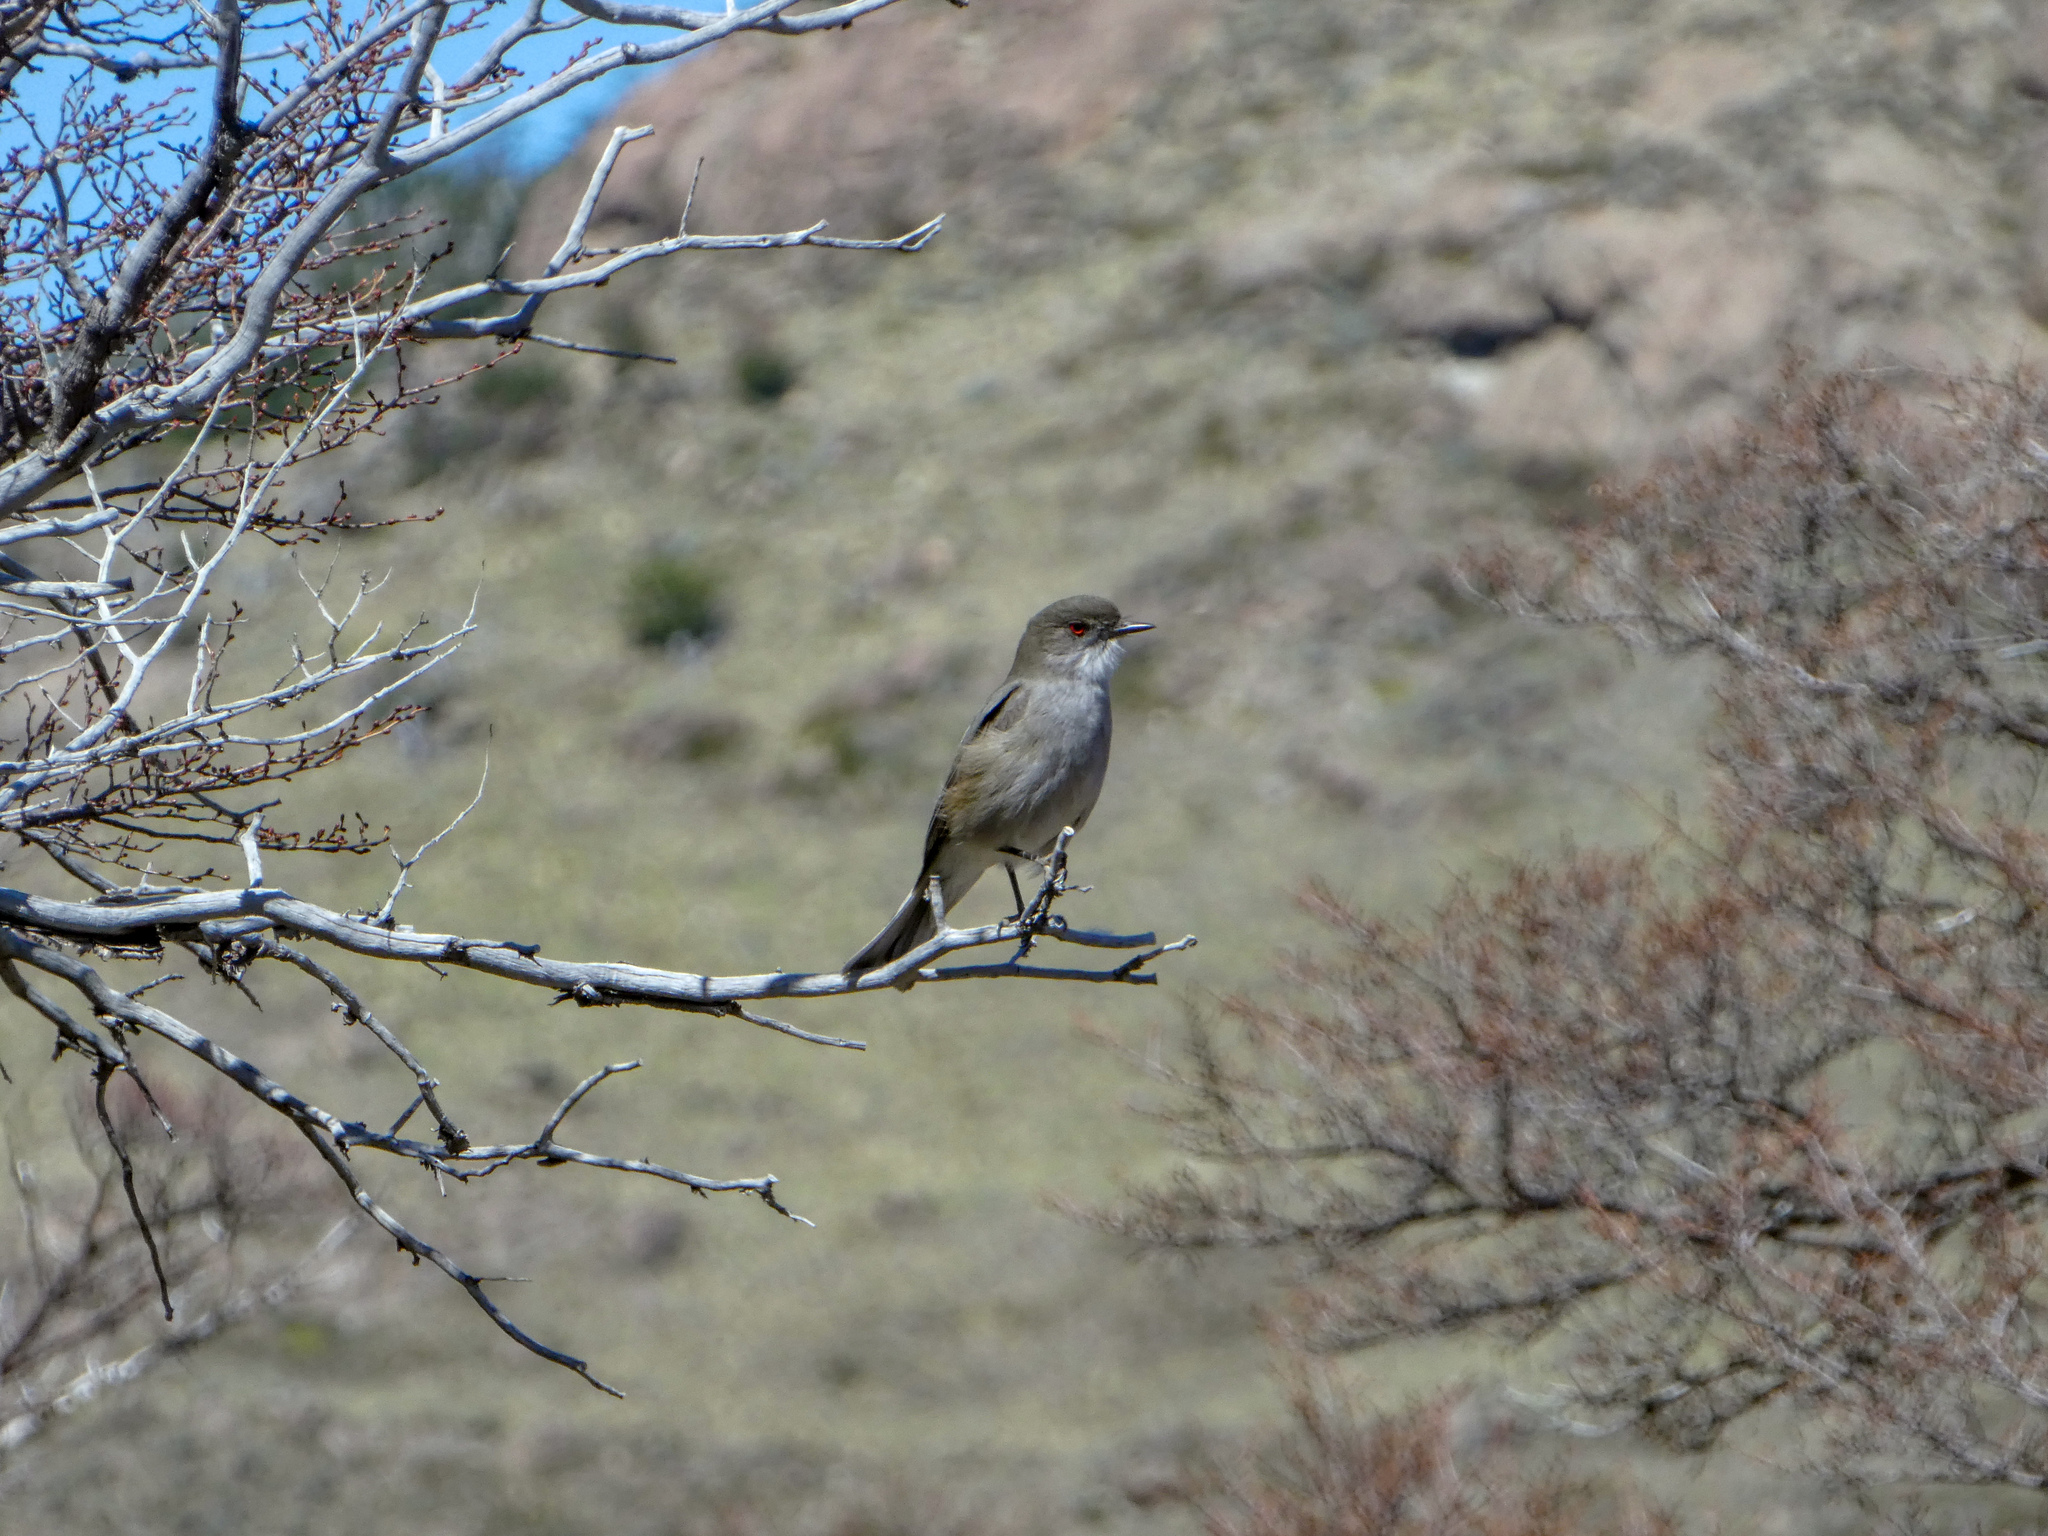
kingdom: Animalia
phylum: Chordata
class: Aves
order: Passeriformes
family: Tyrannidae
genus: Xolmis
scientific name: Xolmis pyrope
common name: Fire-eyed diucon
